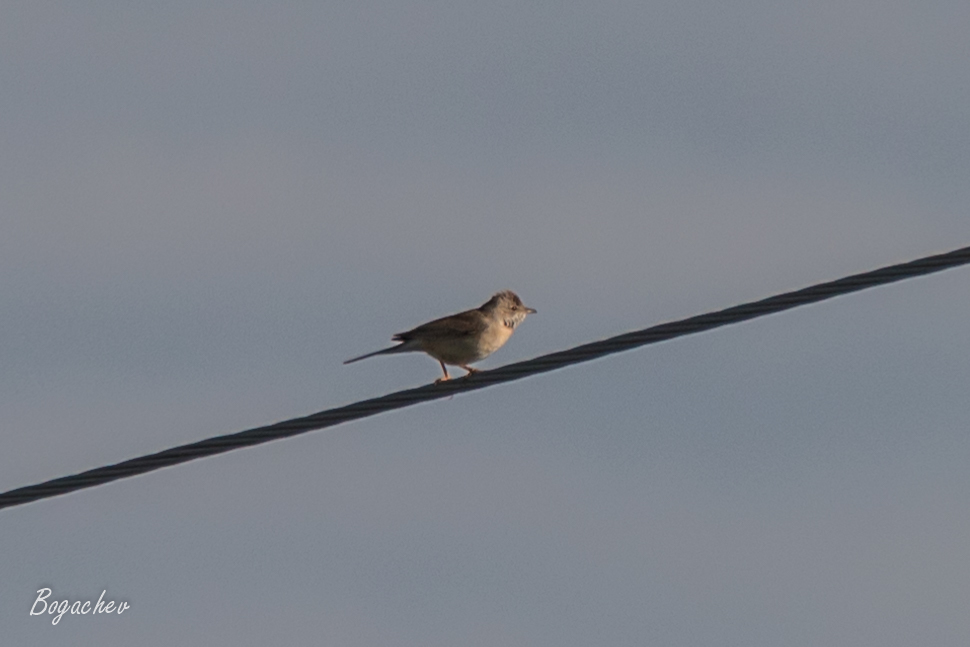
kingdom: Animalia
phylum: Chordata
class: Aves
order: Passeriformes
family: Sylviidae
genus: Sylvia
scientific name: Sylvia communis
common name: Common whitethroat
